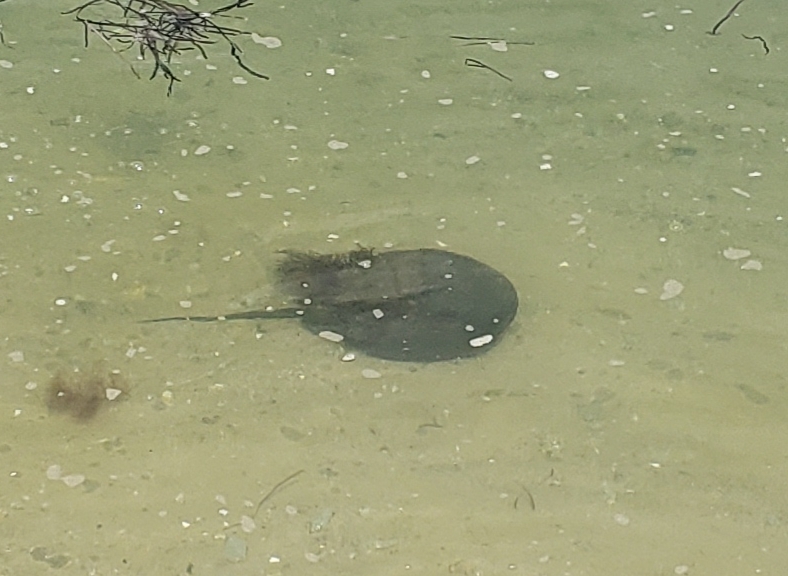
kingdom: Animalia
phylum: Arthropoda
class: Merostomata
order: Xiphosurida
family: Limulidae
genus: Limulus
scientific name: Limulus polyphemus
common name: Horseshoe crab
